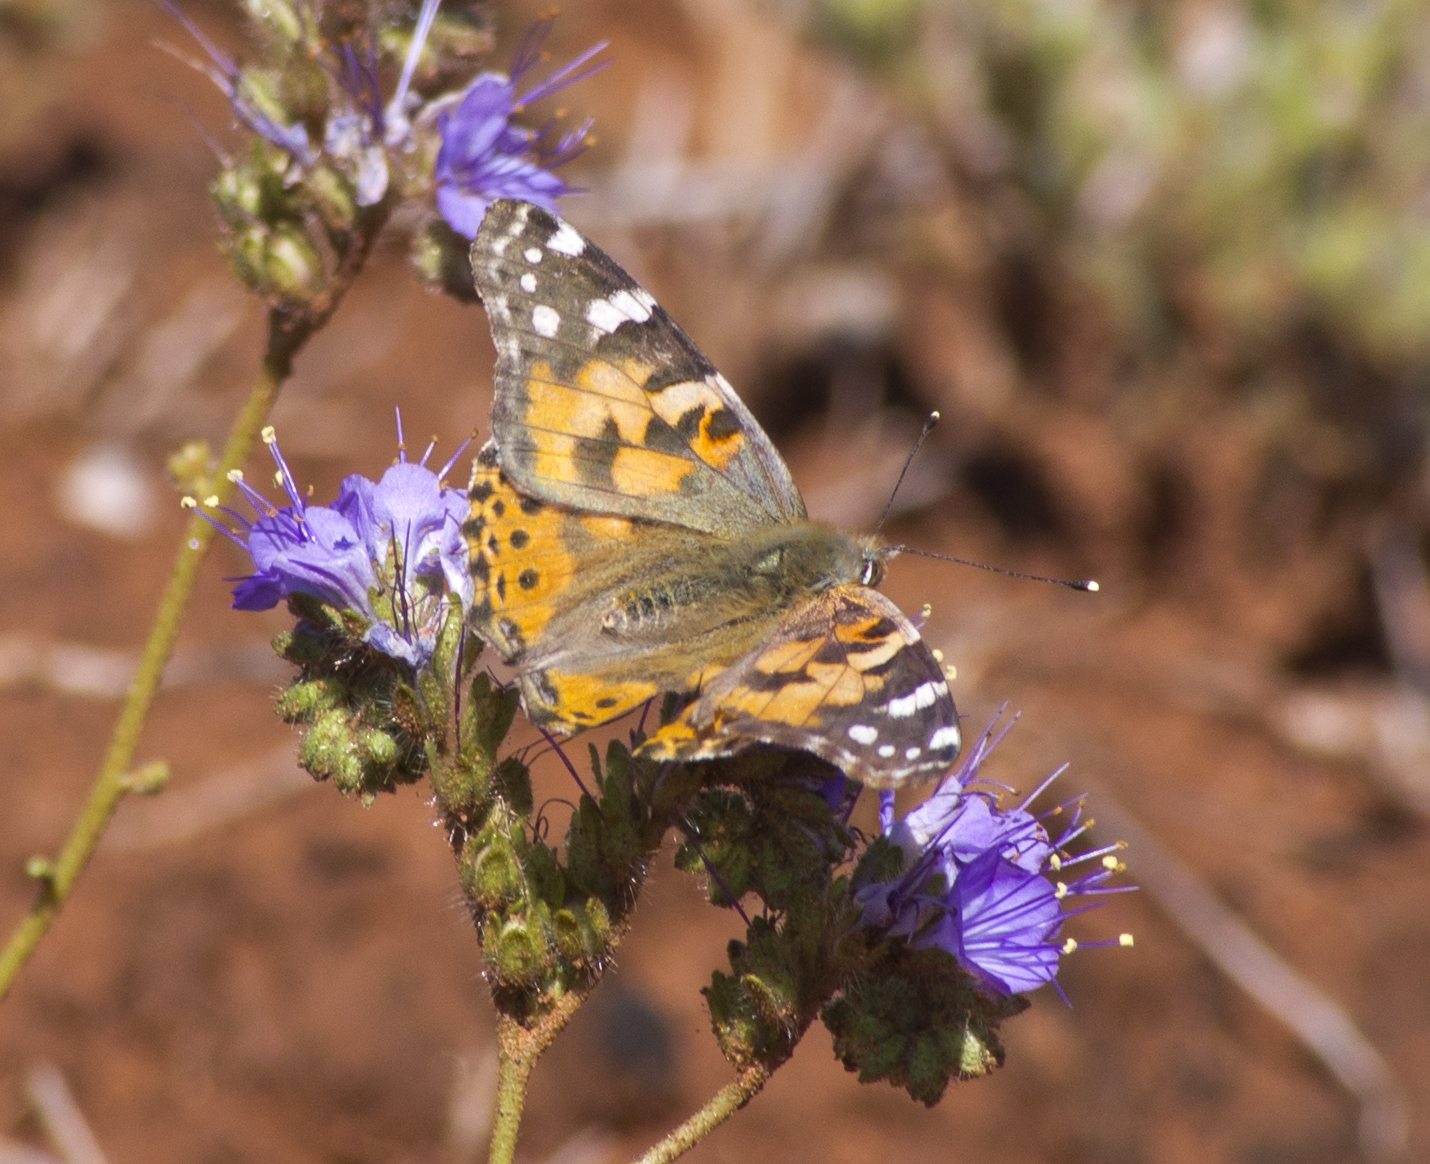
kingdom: Animalia
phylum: Arthropoda
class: Insecta
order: Lepidoptera
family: Nymphalidae
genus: Vanessa
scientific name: Vanessa cardui
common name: Painted lady
